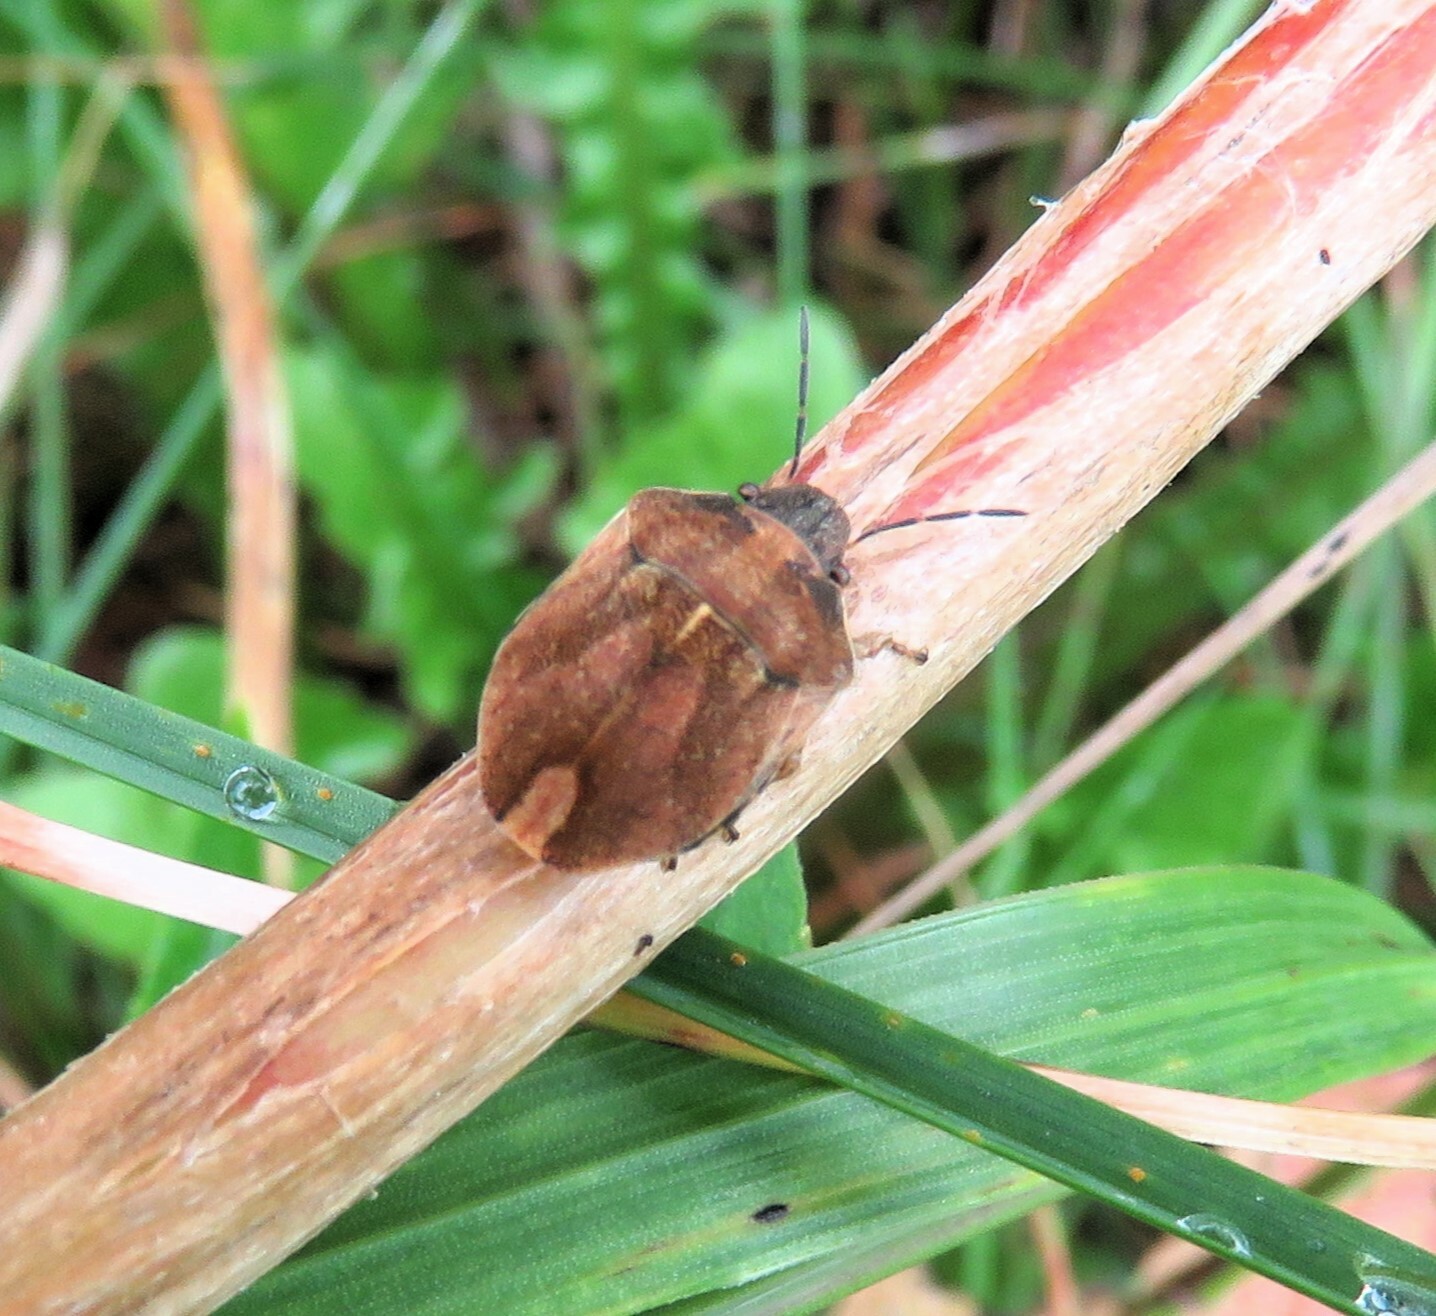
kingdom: Animalia
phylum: Arthropoda
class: Insecta
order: Hemiptera
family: Scutelleridae
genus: Homaemus
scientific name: Homaemus aeneifrons
